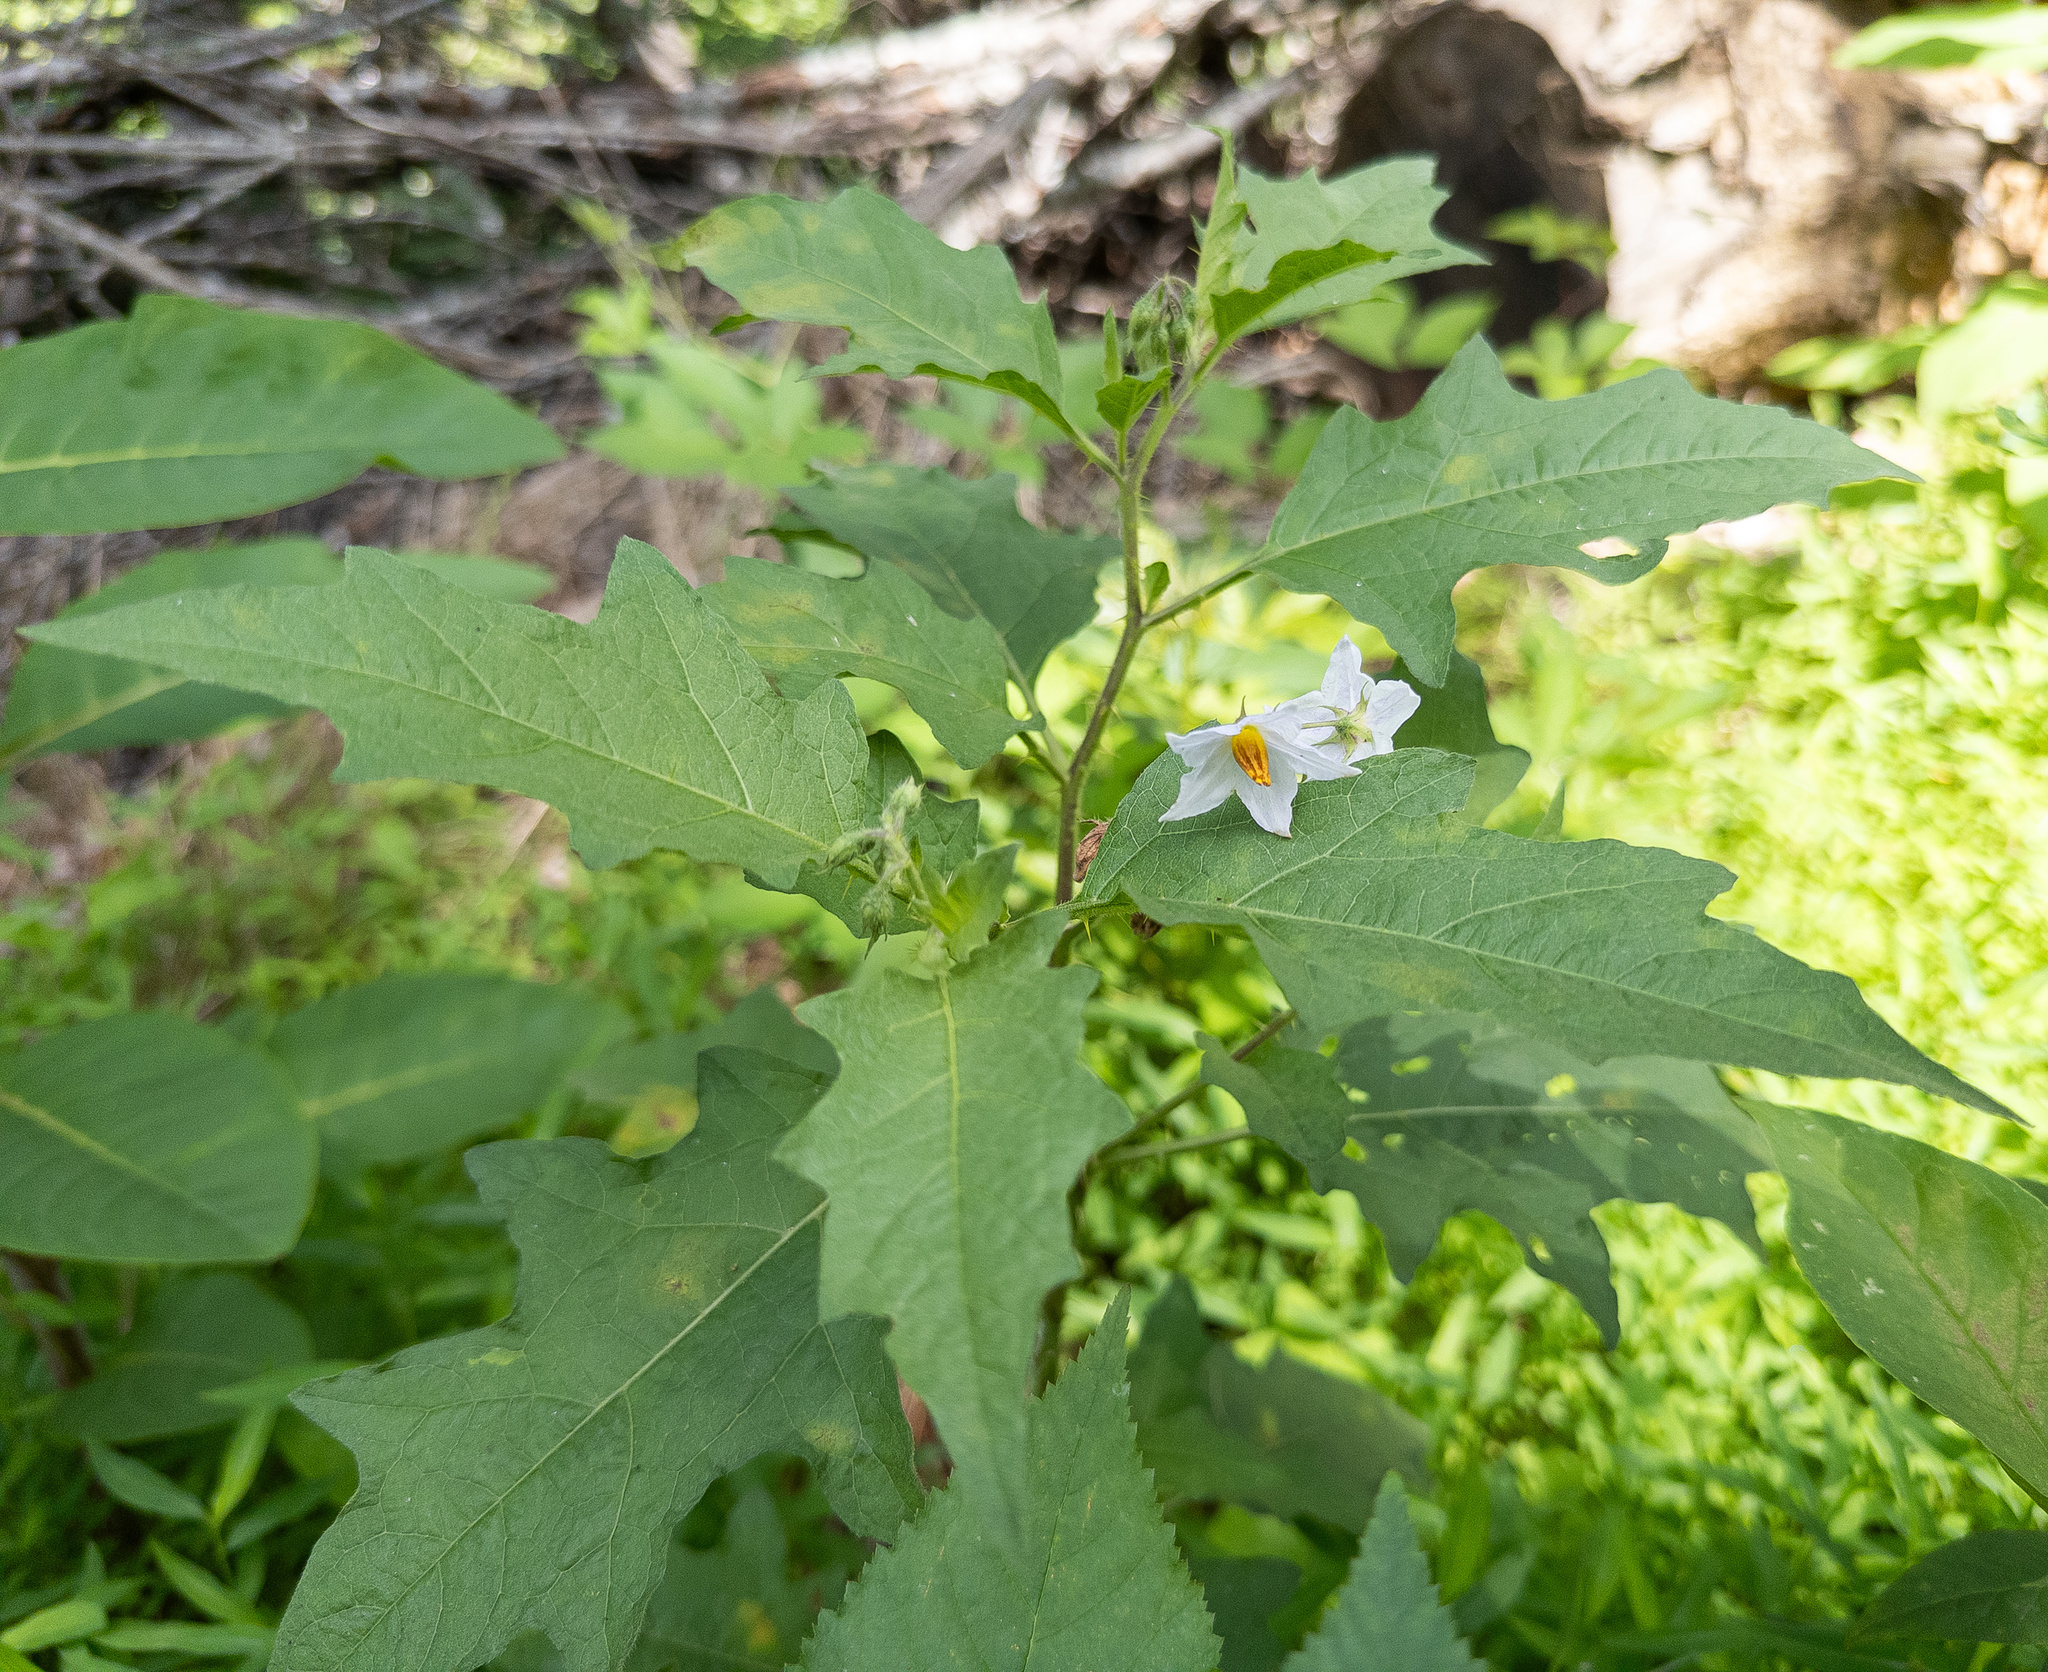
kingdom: Plantae
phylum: Tracheophyta
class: Magnoliopsida
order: Solanales
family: Solanaceae
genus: Solanum
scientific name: Solanum carolinense
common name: Horse-nettle
